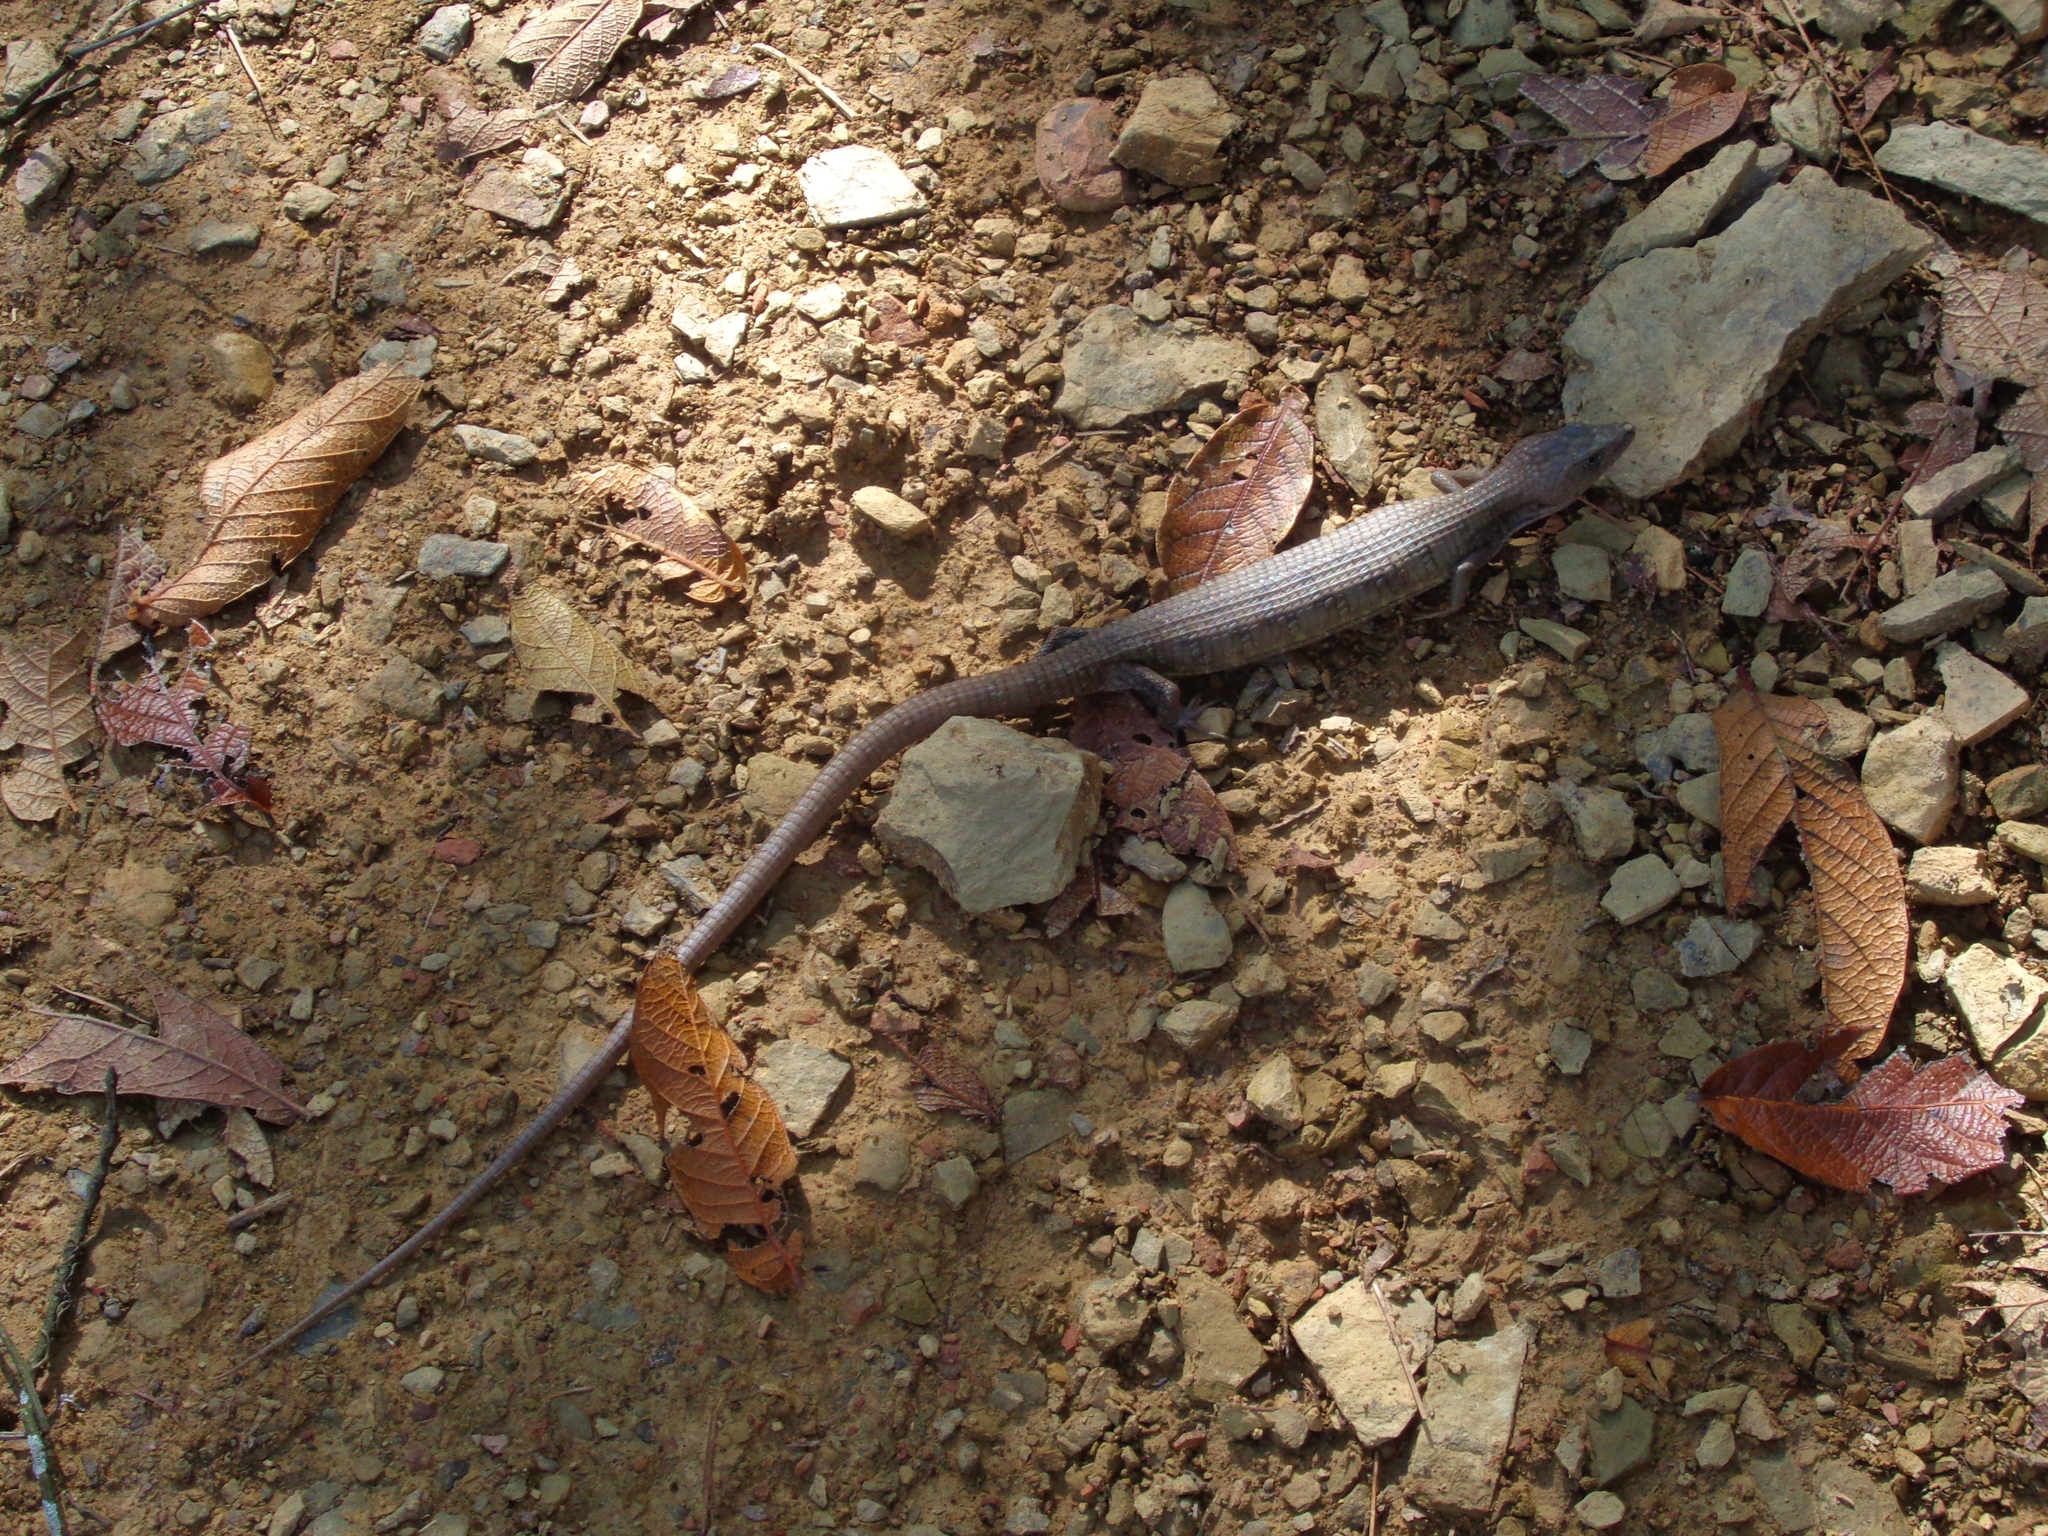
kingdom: Animalia
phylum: Chordata
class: Squamata
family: Anguidae
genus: Gerrhonotus
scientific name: Gerrhonotus infernalis
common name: Texas alligator lizard
